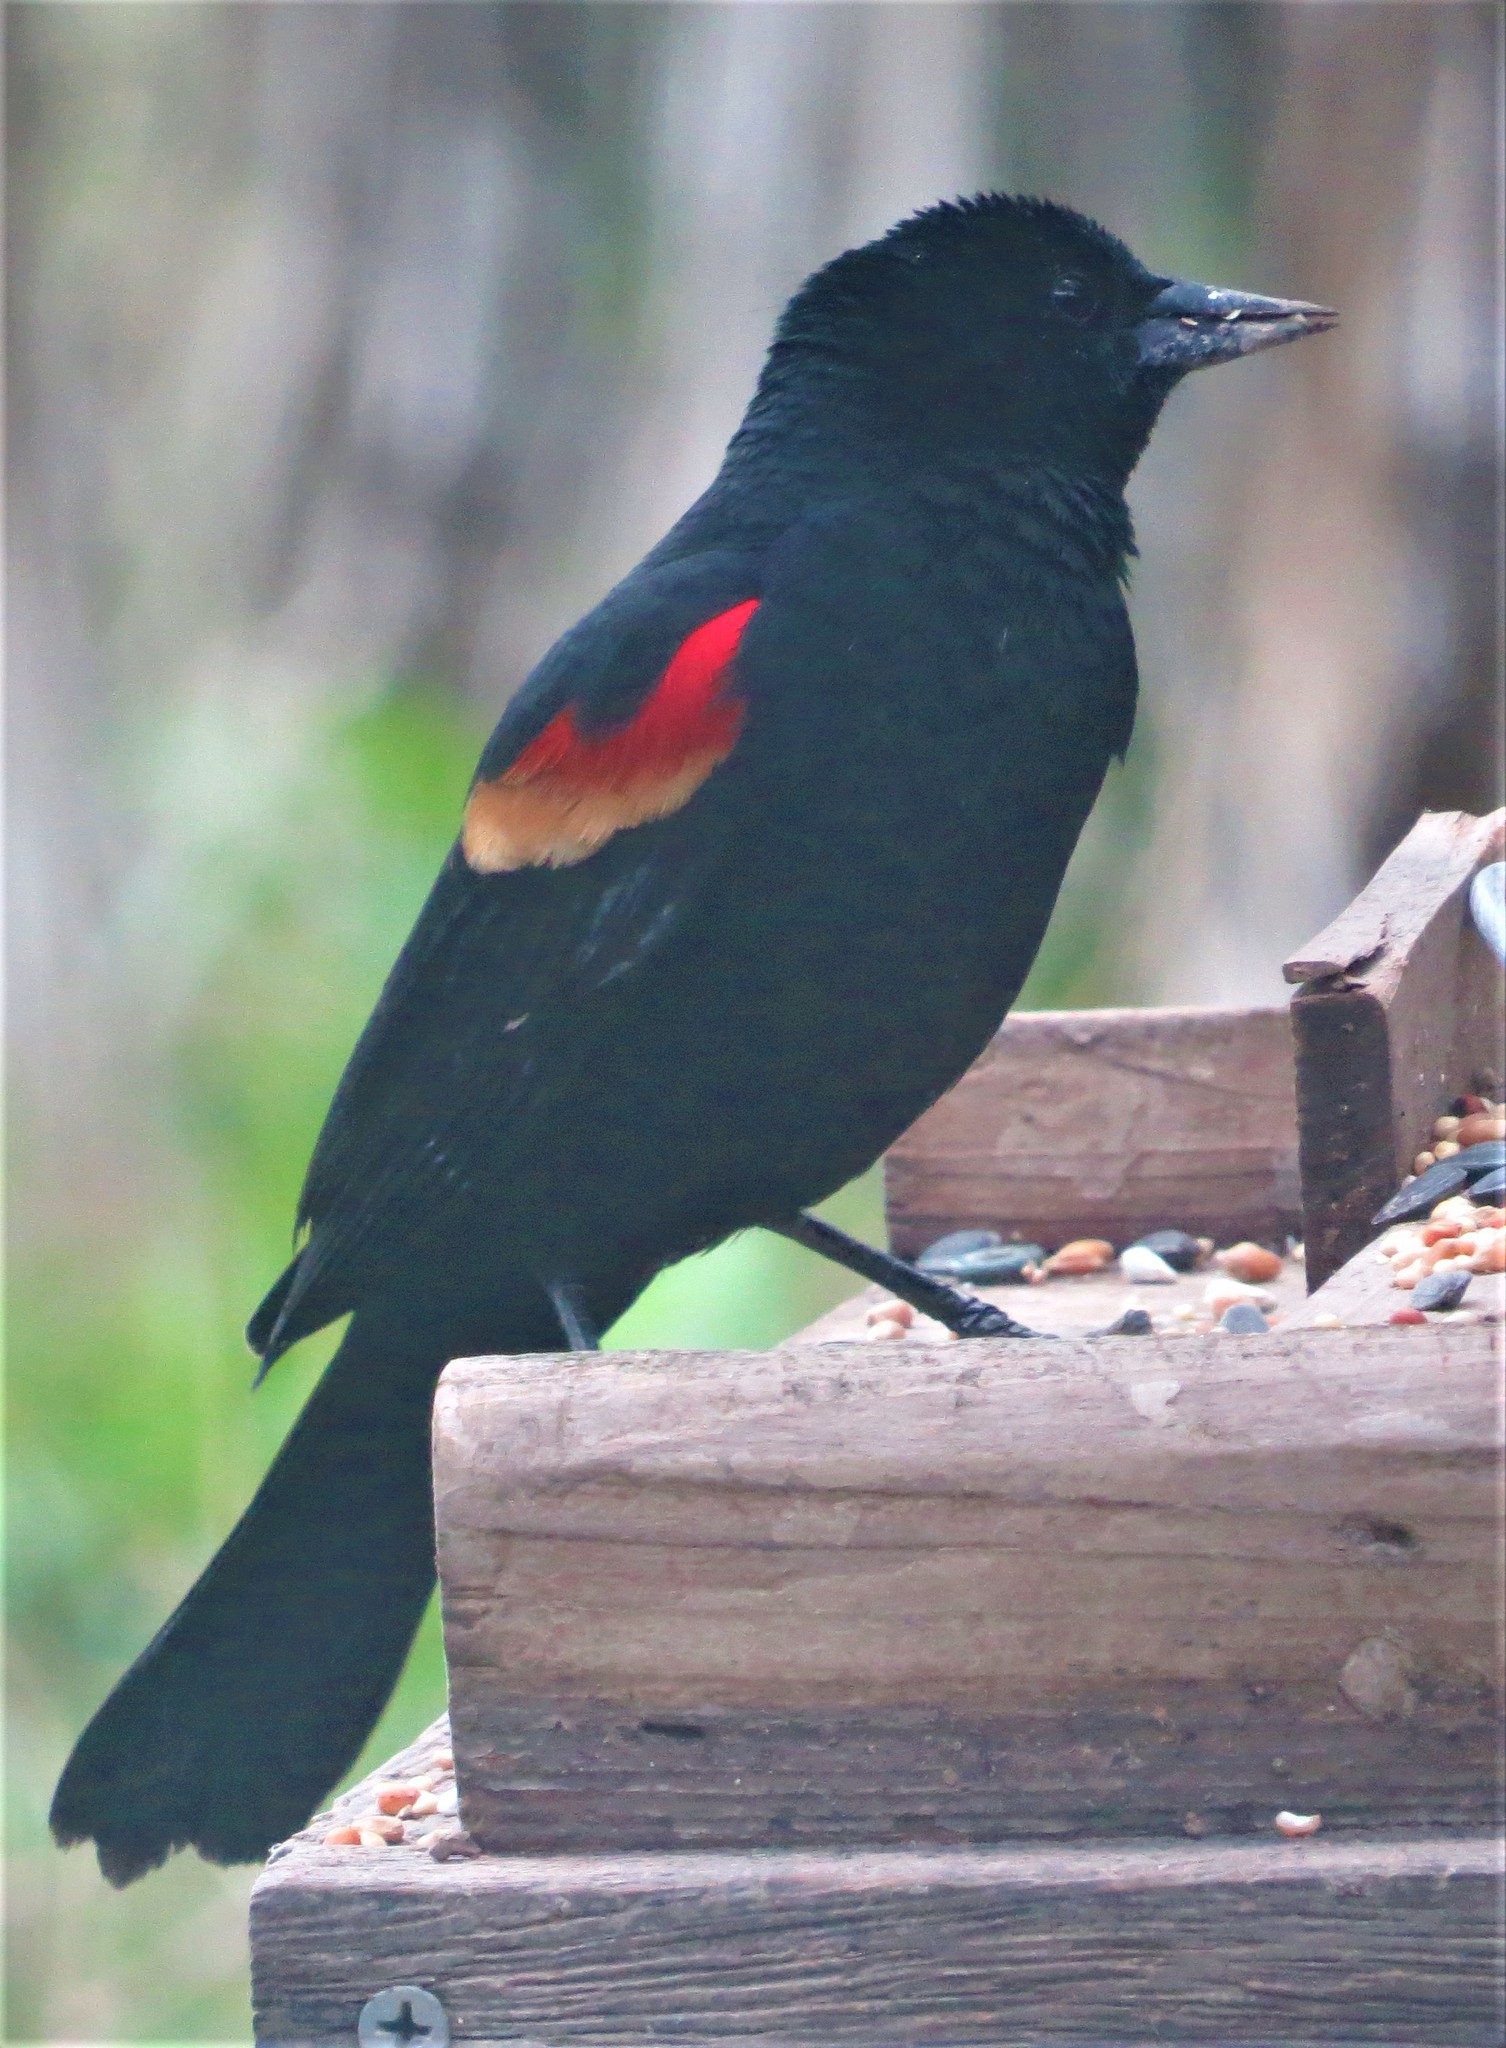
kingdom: Animalia
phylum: Chordata
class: Aves
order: Passeriformes
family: Icteridae
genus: Agelaius
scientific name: Agelaius phoeniceus
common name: Red-winged blackbird
